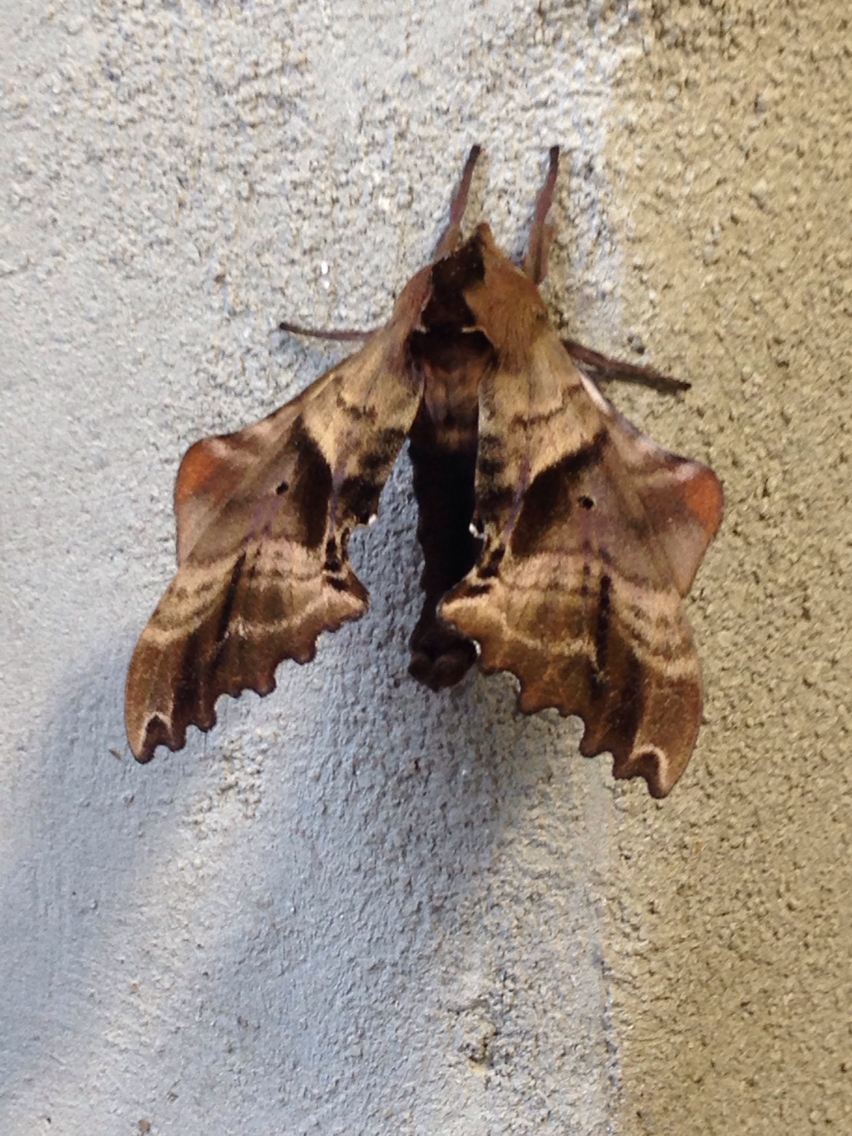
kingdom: Animalia
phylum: Arthropoda
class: Insecta
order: Lepidoptera
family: Sphingidae
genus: Paonias
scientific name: Paonias excaecata
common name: Blind-eyed sphinx
